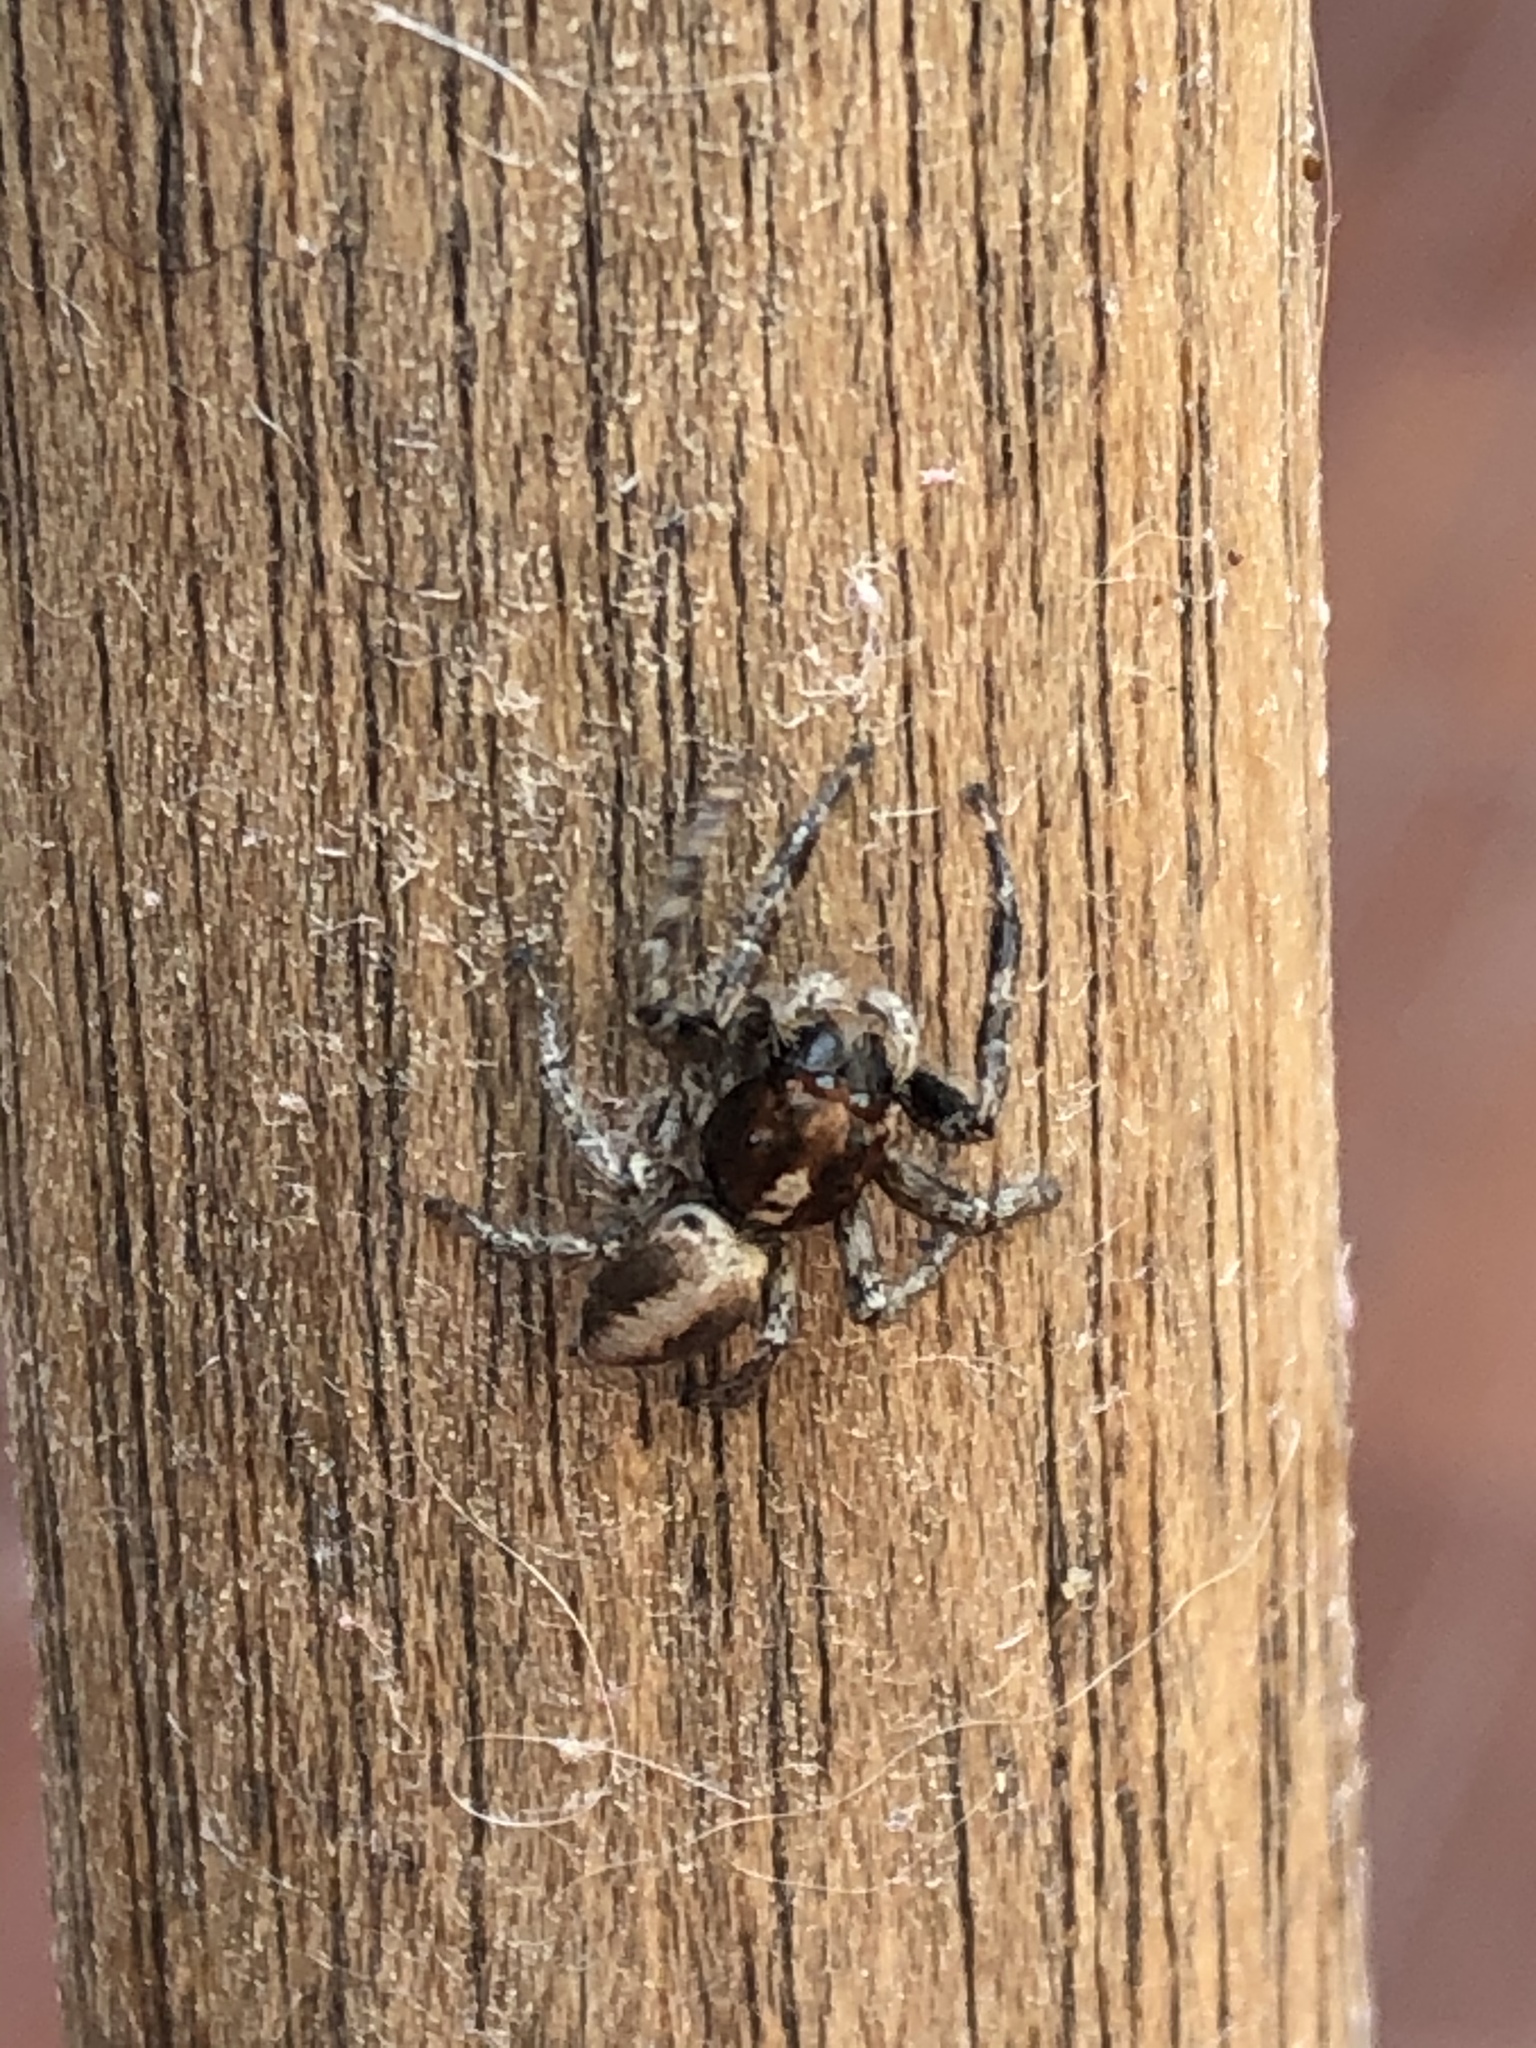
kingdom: Animalia
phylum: Arthropoda
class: Arachnida
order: Araneae
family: Salticidae
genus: Frigga
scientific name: Frigga crocuta
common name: Jumping spiders
